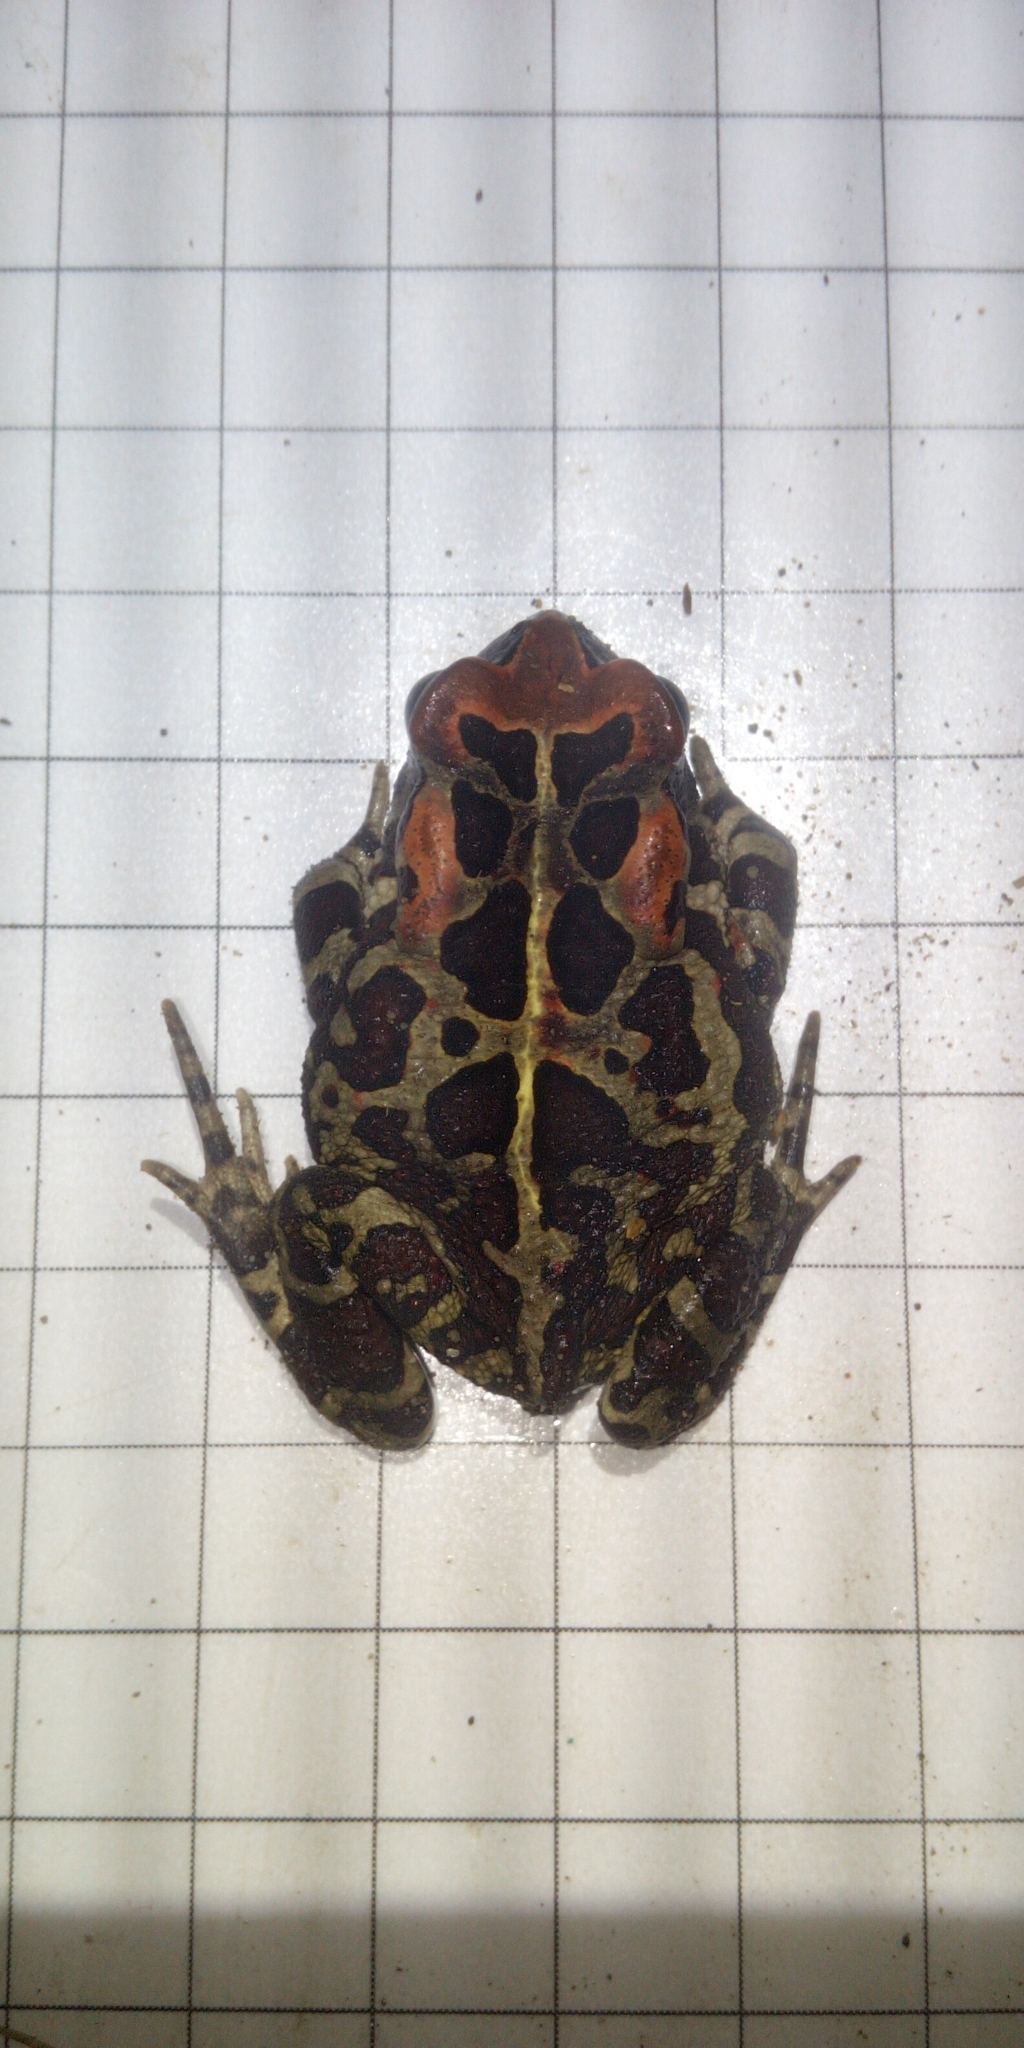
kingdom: Animalia
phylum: Chordata
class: Amphibia
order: Anura
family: Bufonidae
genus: Sclerophrys
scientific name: Sclerophrys pantherina
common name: Panther toad
